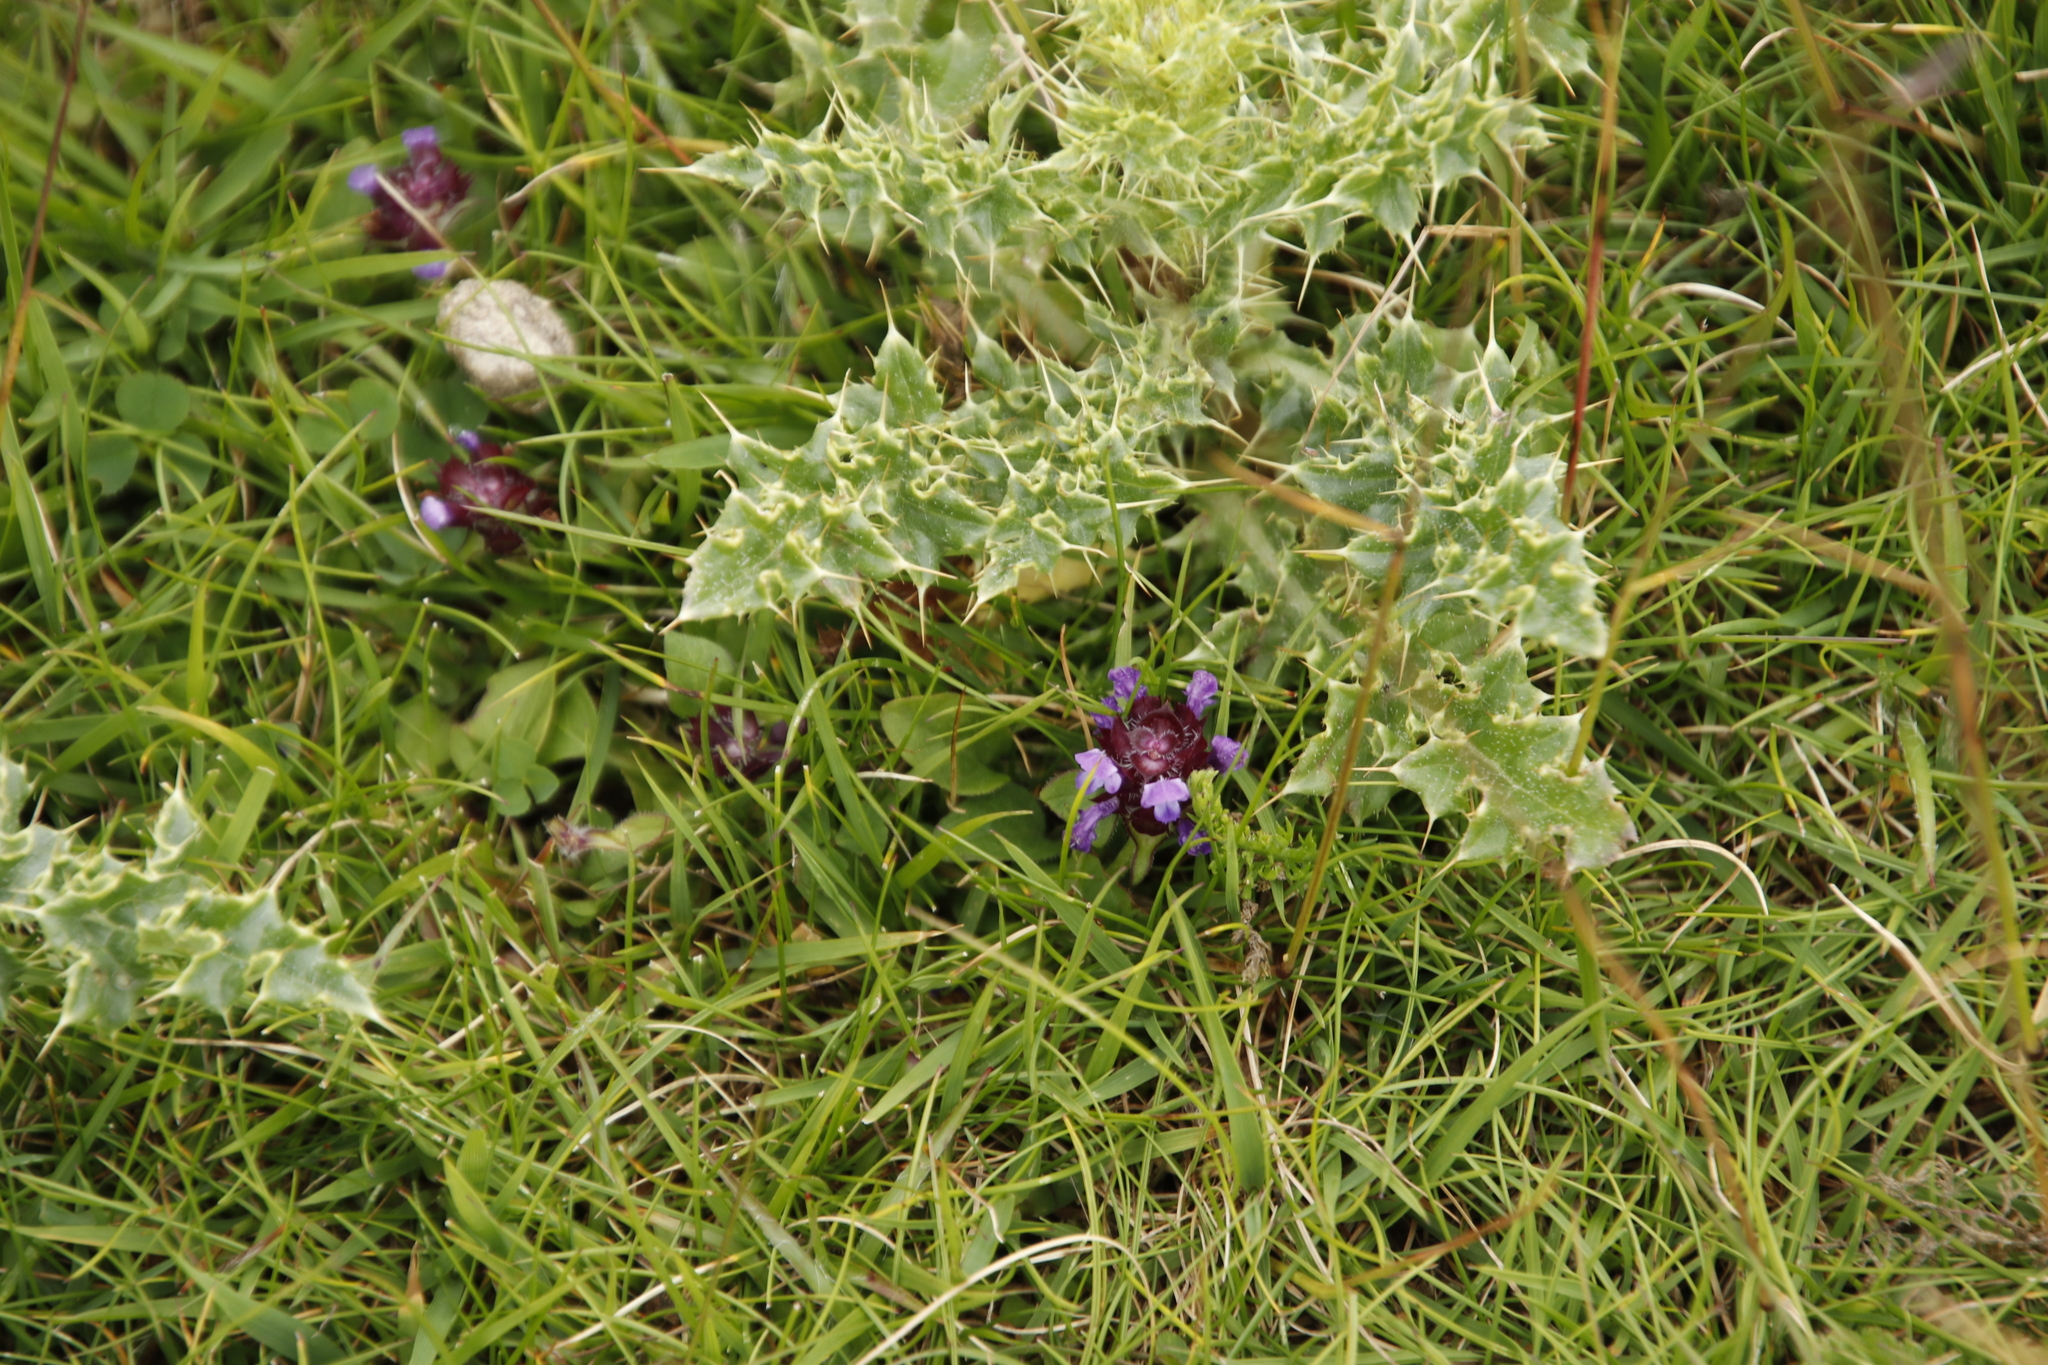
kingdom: Plantae
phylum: Tracheophyta
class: Magnoliopsida
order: Lamiales
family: Lamiaceae
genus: Prunella
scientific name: Prunella vulgaris
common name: Heal-all
